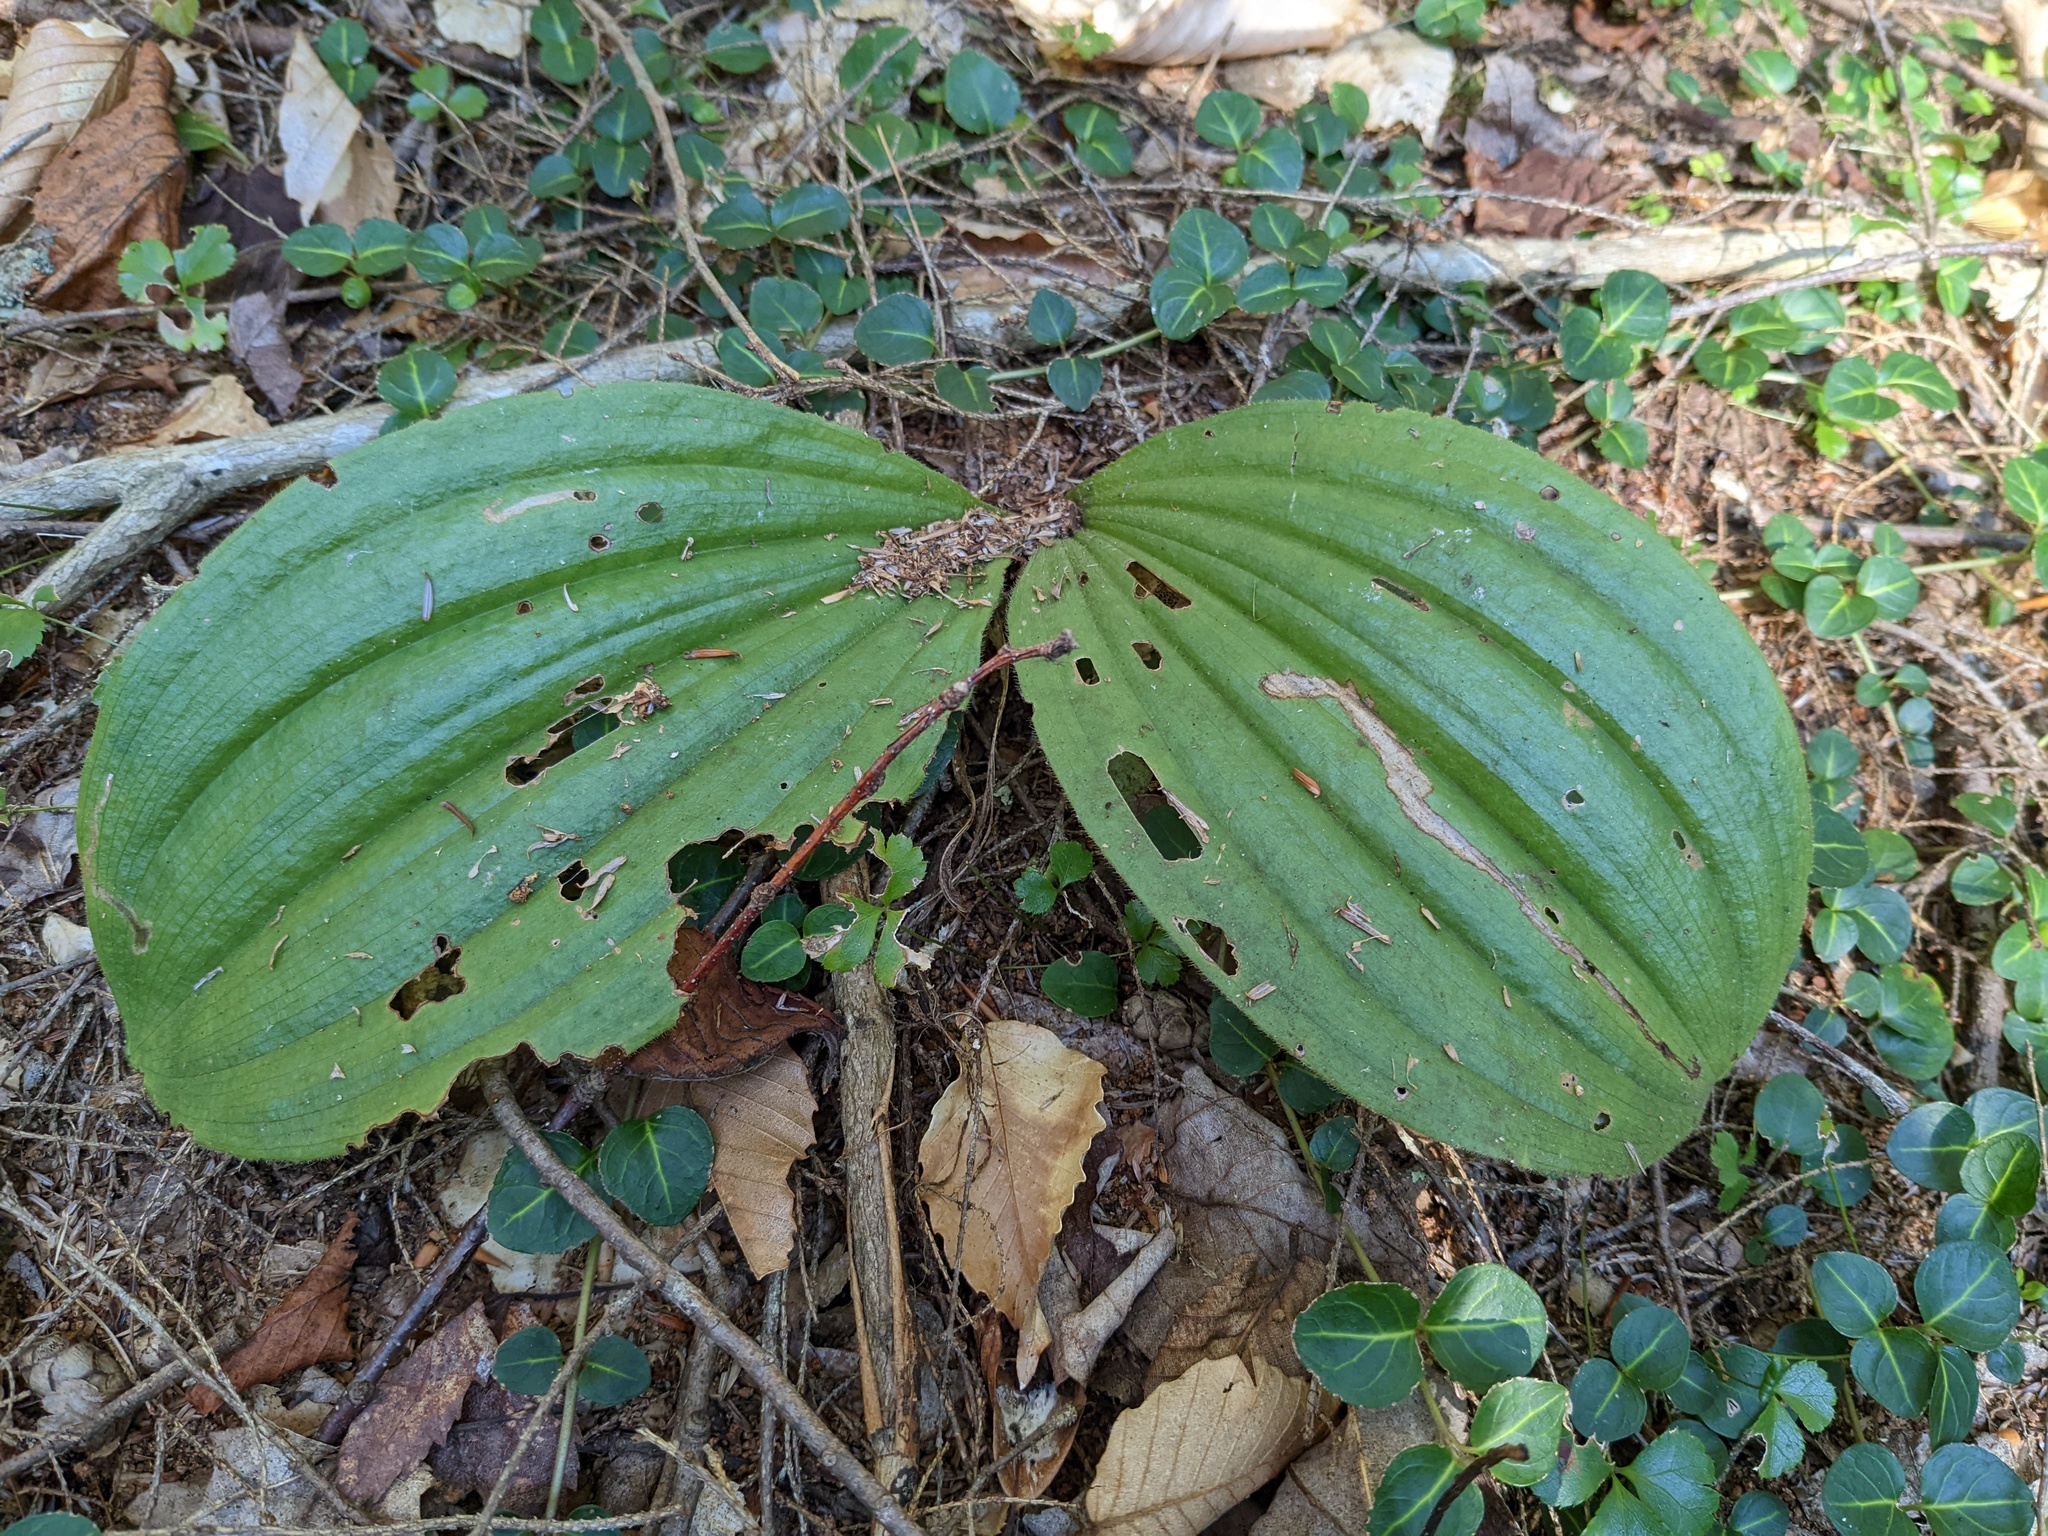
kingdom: Plantae
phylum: Tracheophyta
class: Liliopsida
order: Asparagales
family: Orchidaceae
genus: Cypripedium
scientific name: Cypripedium acaule
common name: Pink lady's-slipper
